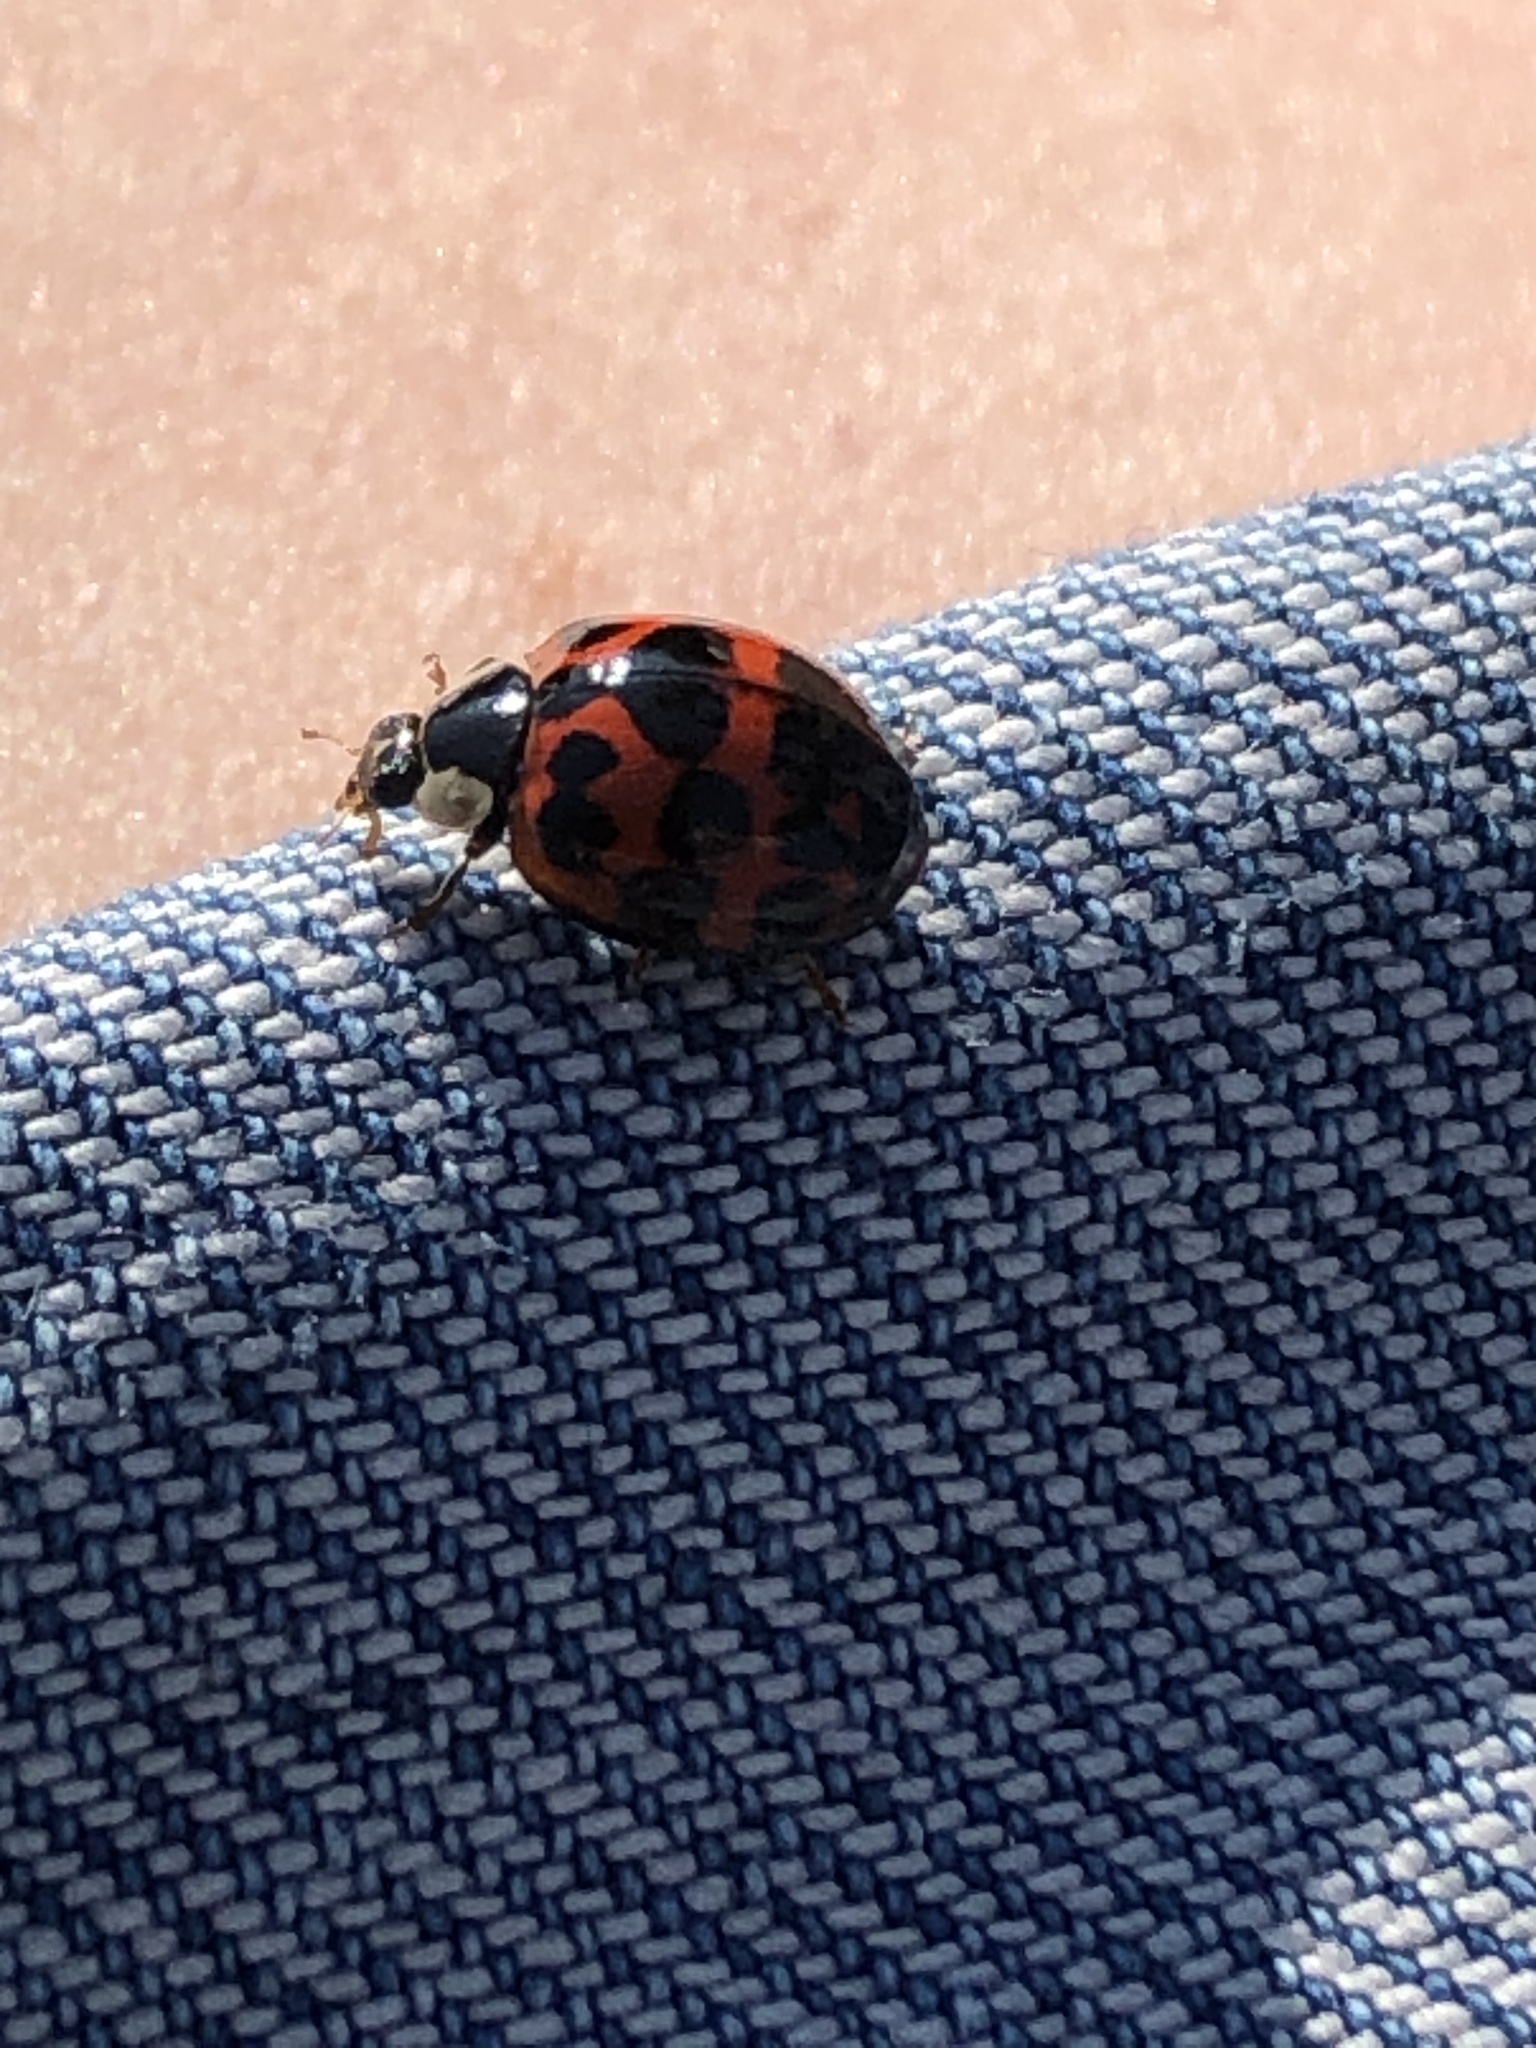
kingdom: Animalia
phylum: Arthropoda
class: Insecta
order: Coleoptera
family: Coccinellidae
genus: Harmonia
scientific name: Harmonia axyridis
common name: Harlequin ladybird
